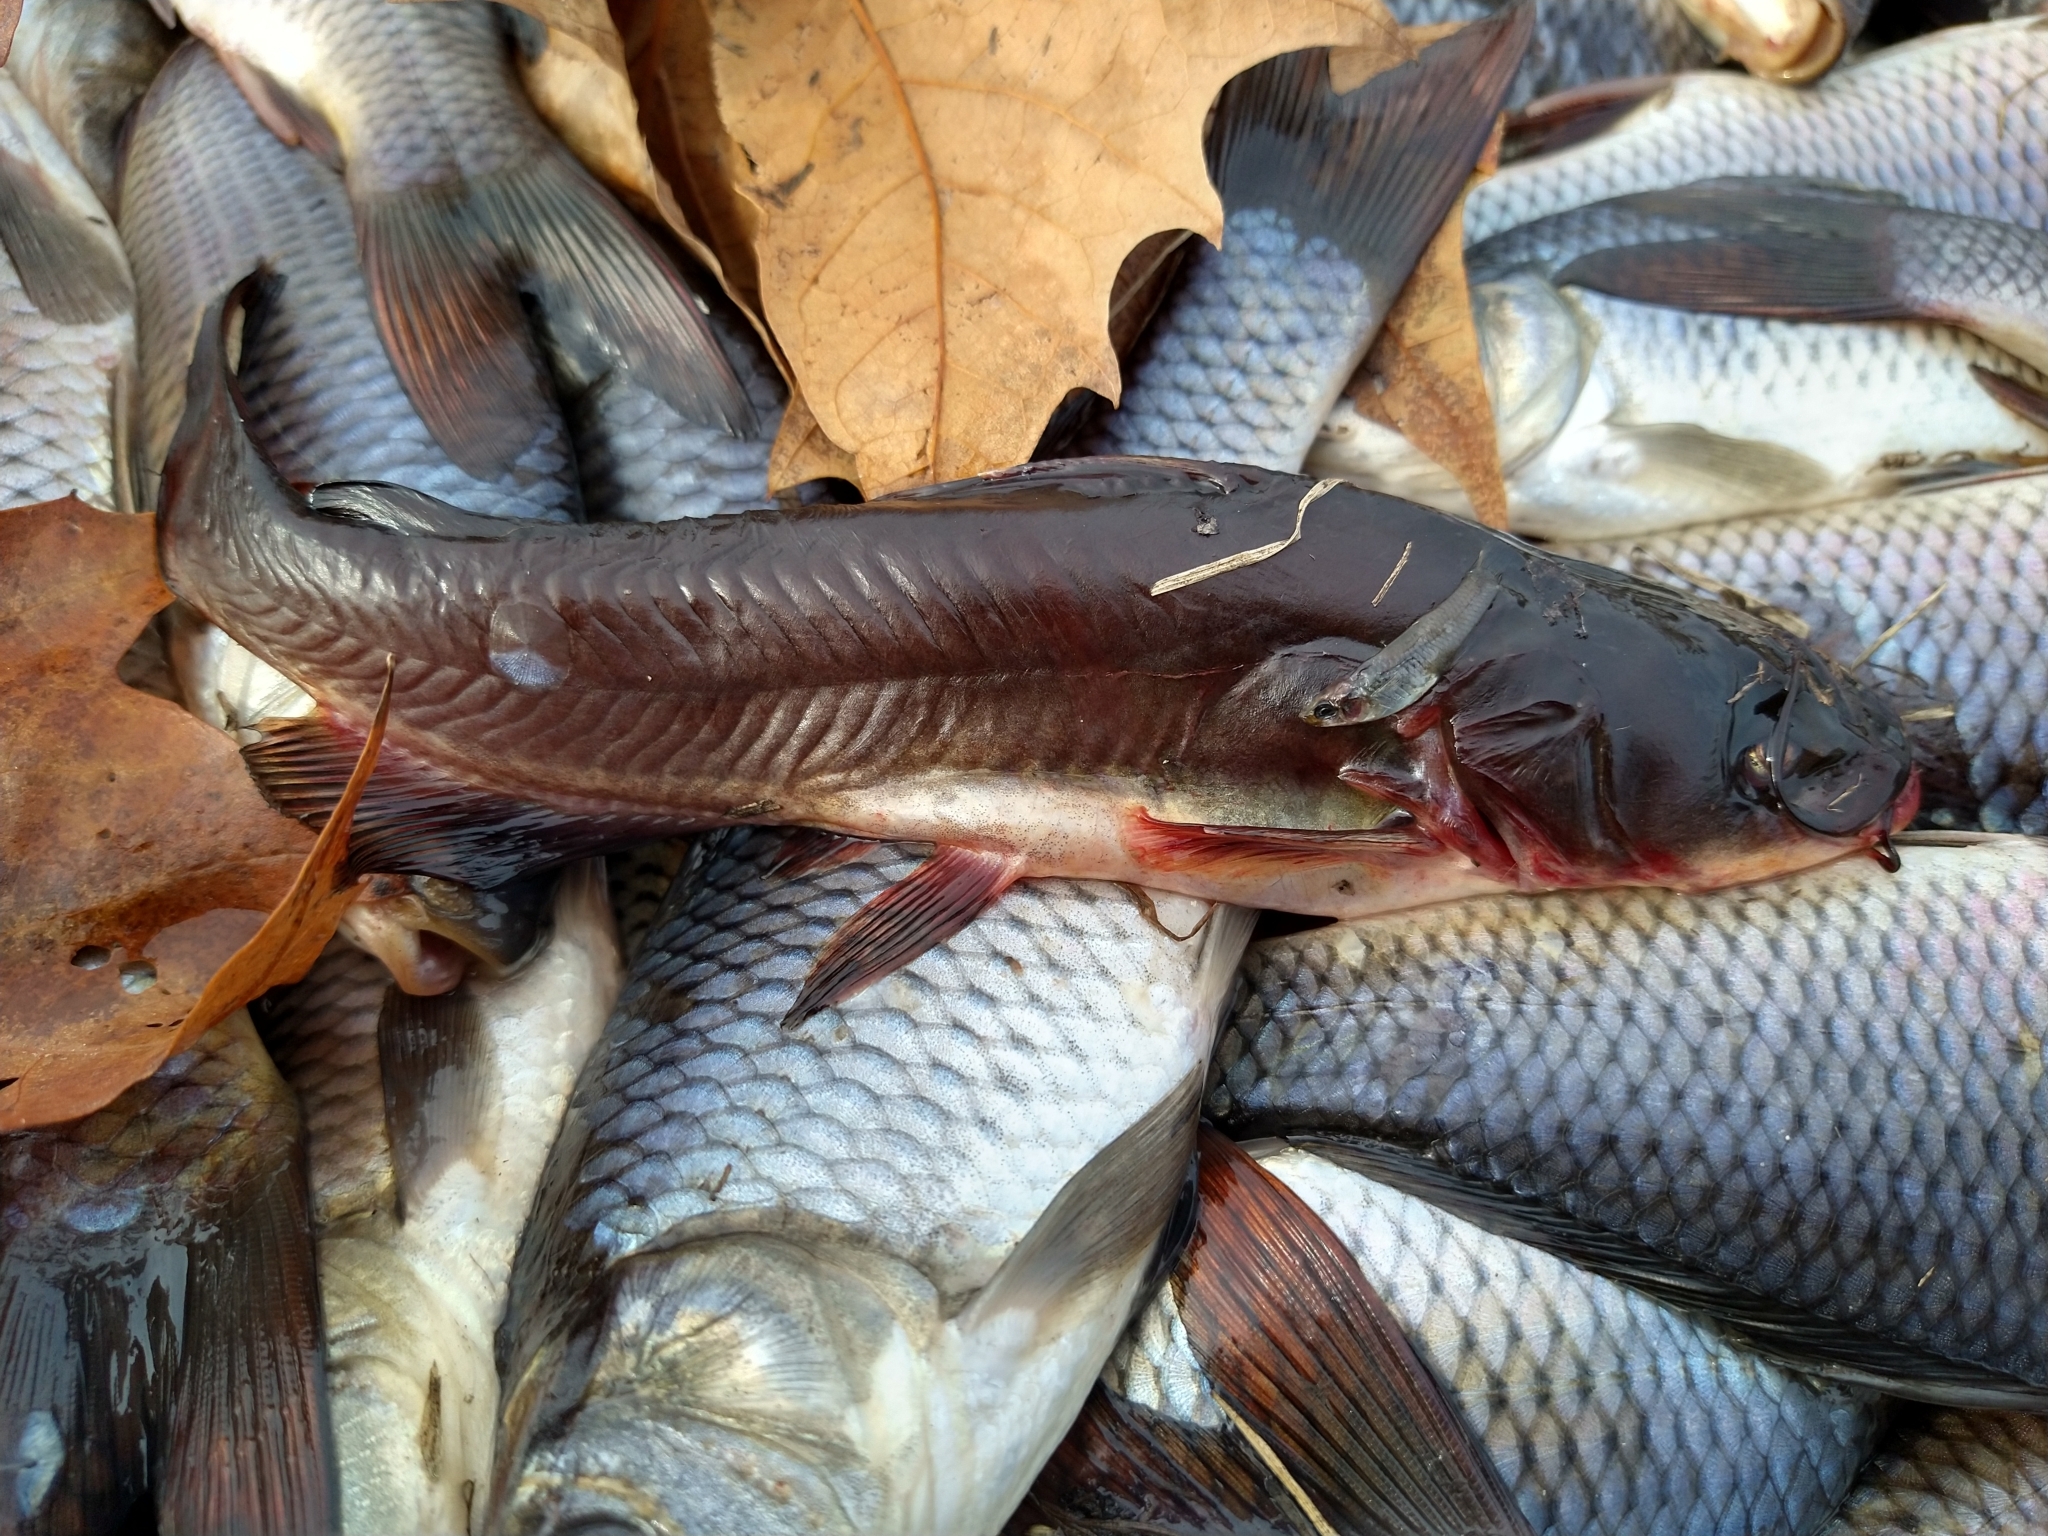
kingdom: Animalia
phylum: Chordata
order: Siluriformes
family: Ictaluridae
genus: Ameiurus
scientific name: Ameiurus melas
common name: Black bullhead
